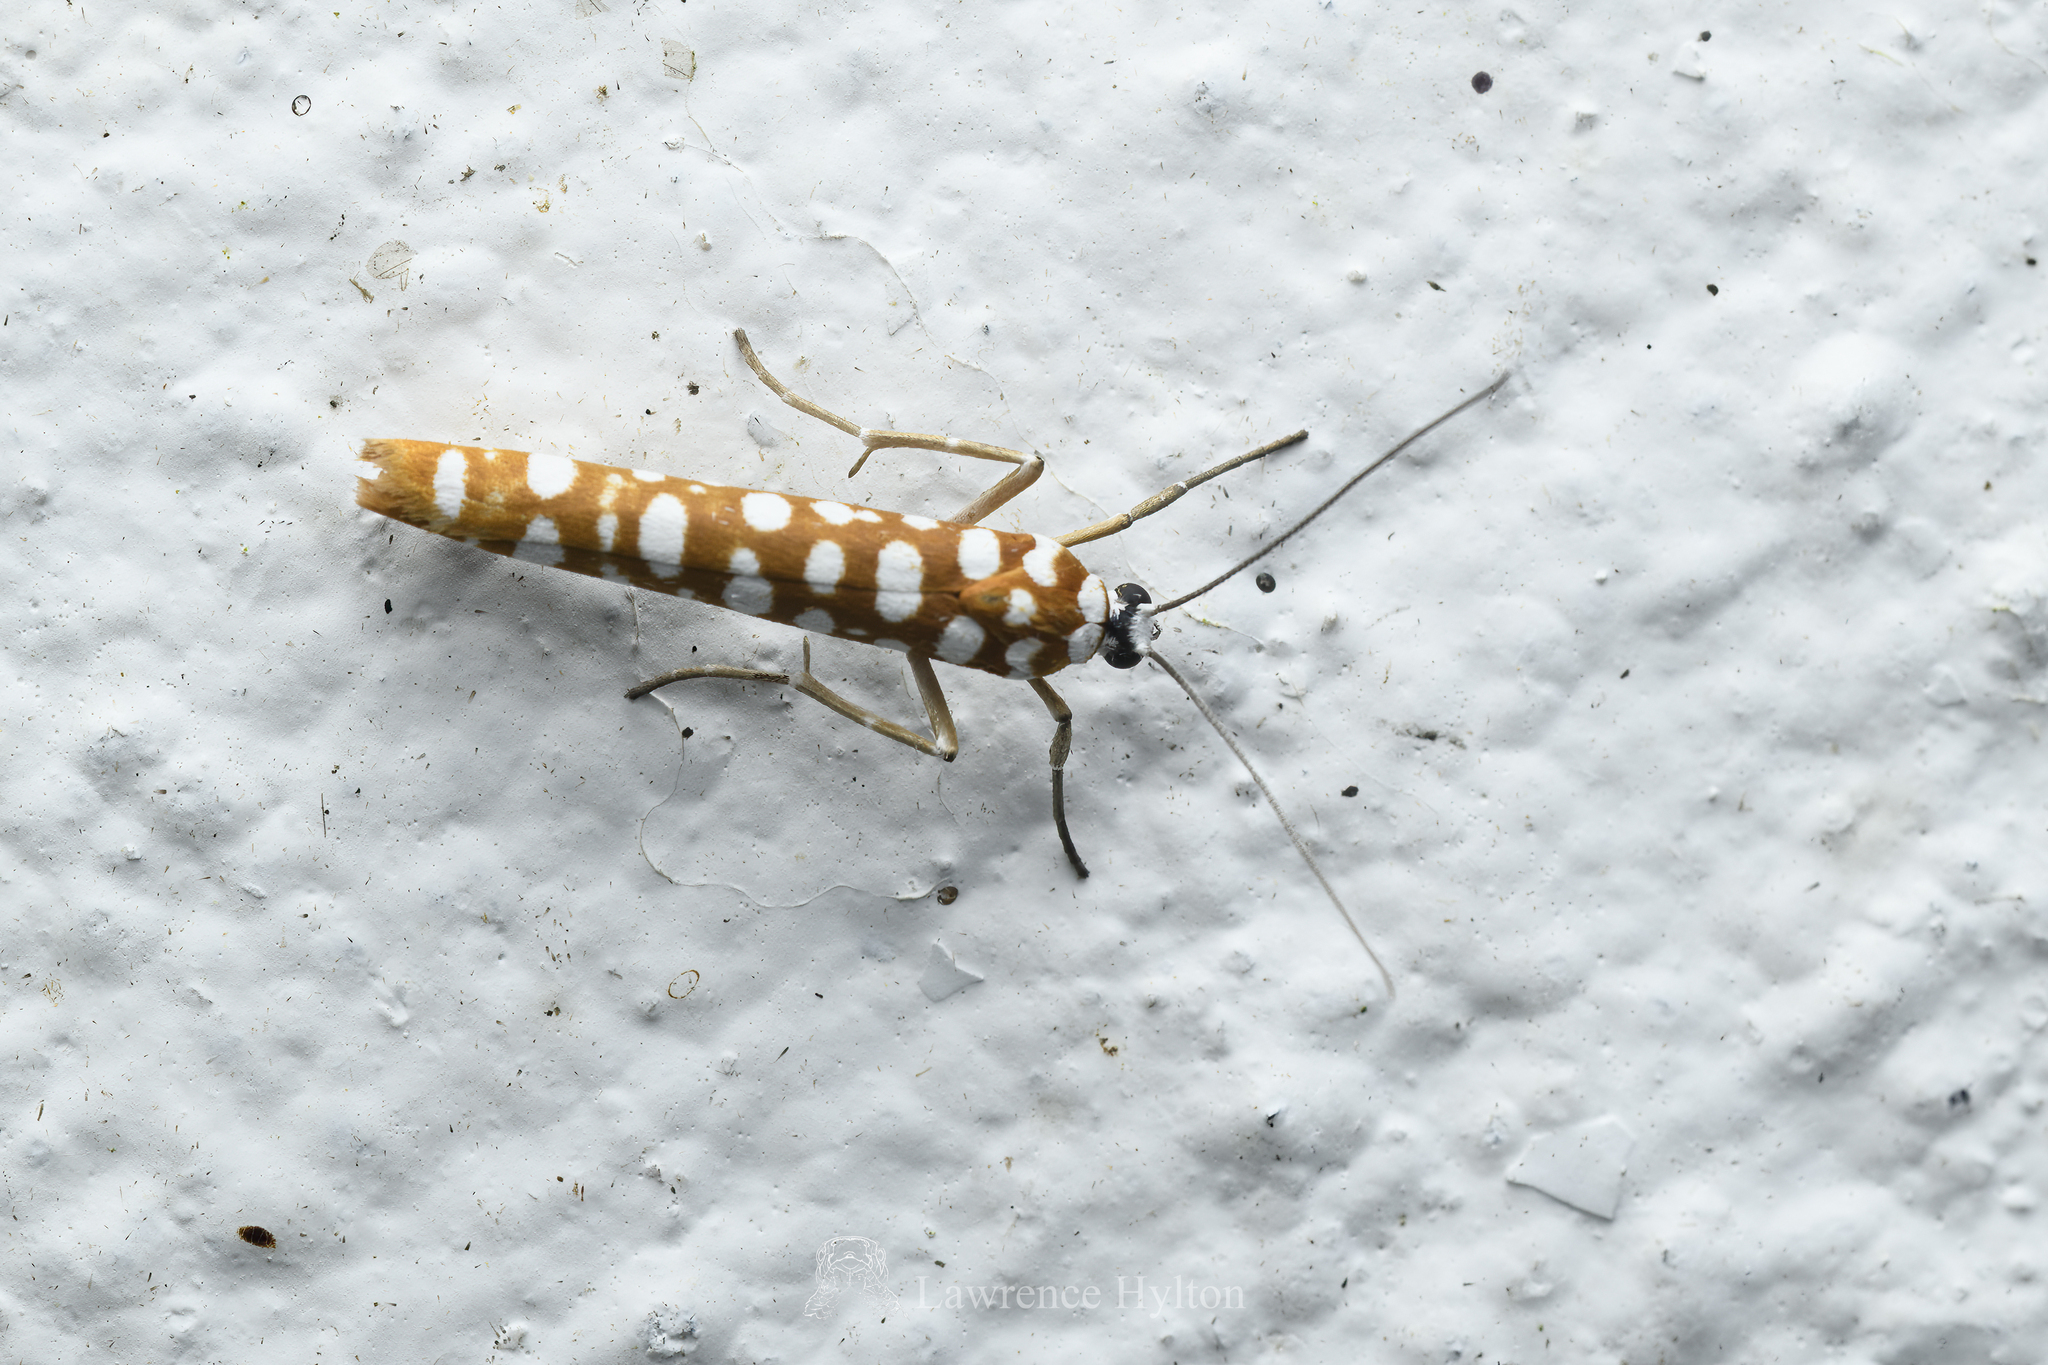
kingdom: Animalia
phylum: Arthropoda
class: Insecta
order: Lepidoptera
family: Attevidae
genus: Atteva
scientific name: Atteva wallengreni
